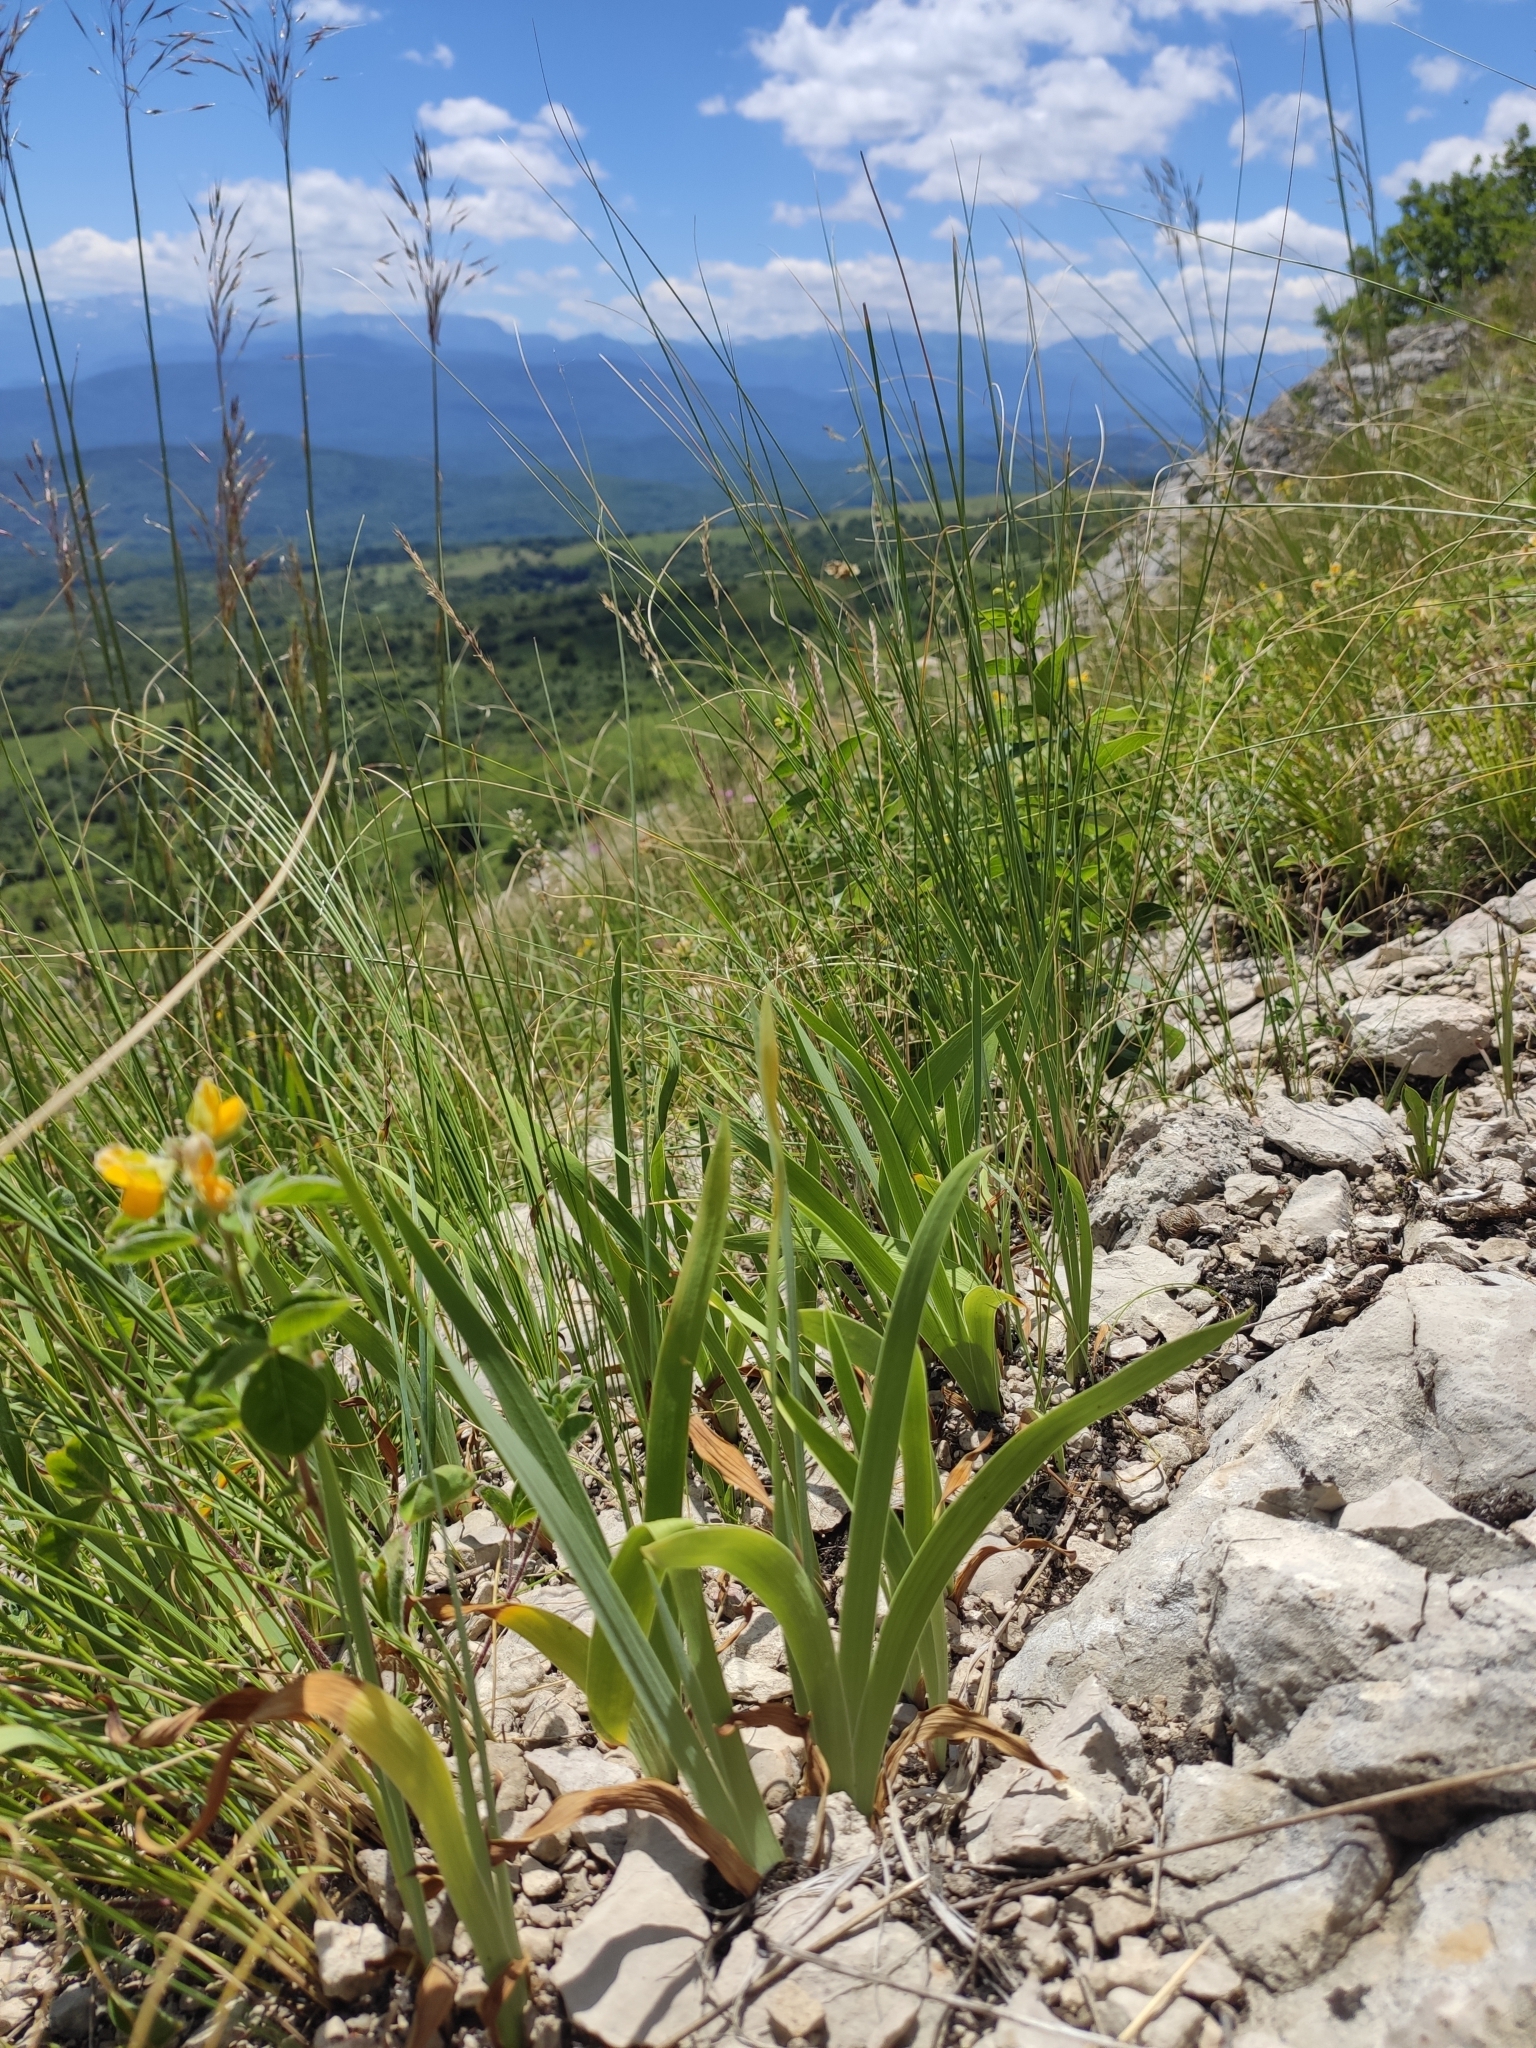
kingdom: Plantae
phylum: Tracheophyta
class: Liliopsida
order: Asparagales
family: Iridaceae
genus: Iris
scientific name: Iris pumila
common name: Dwarf iris
